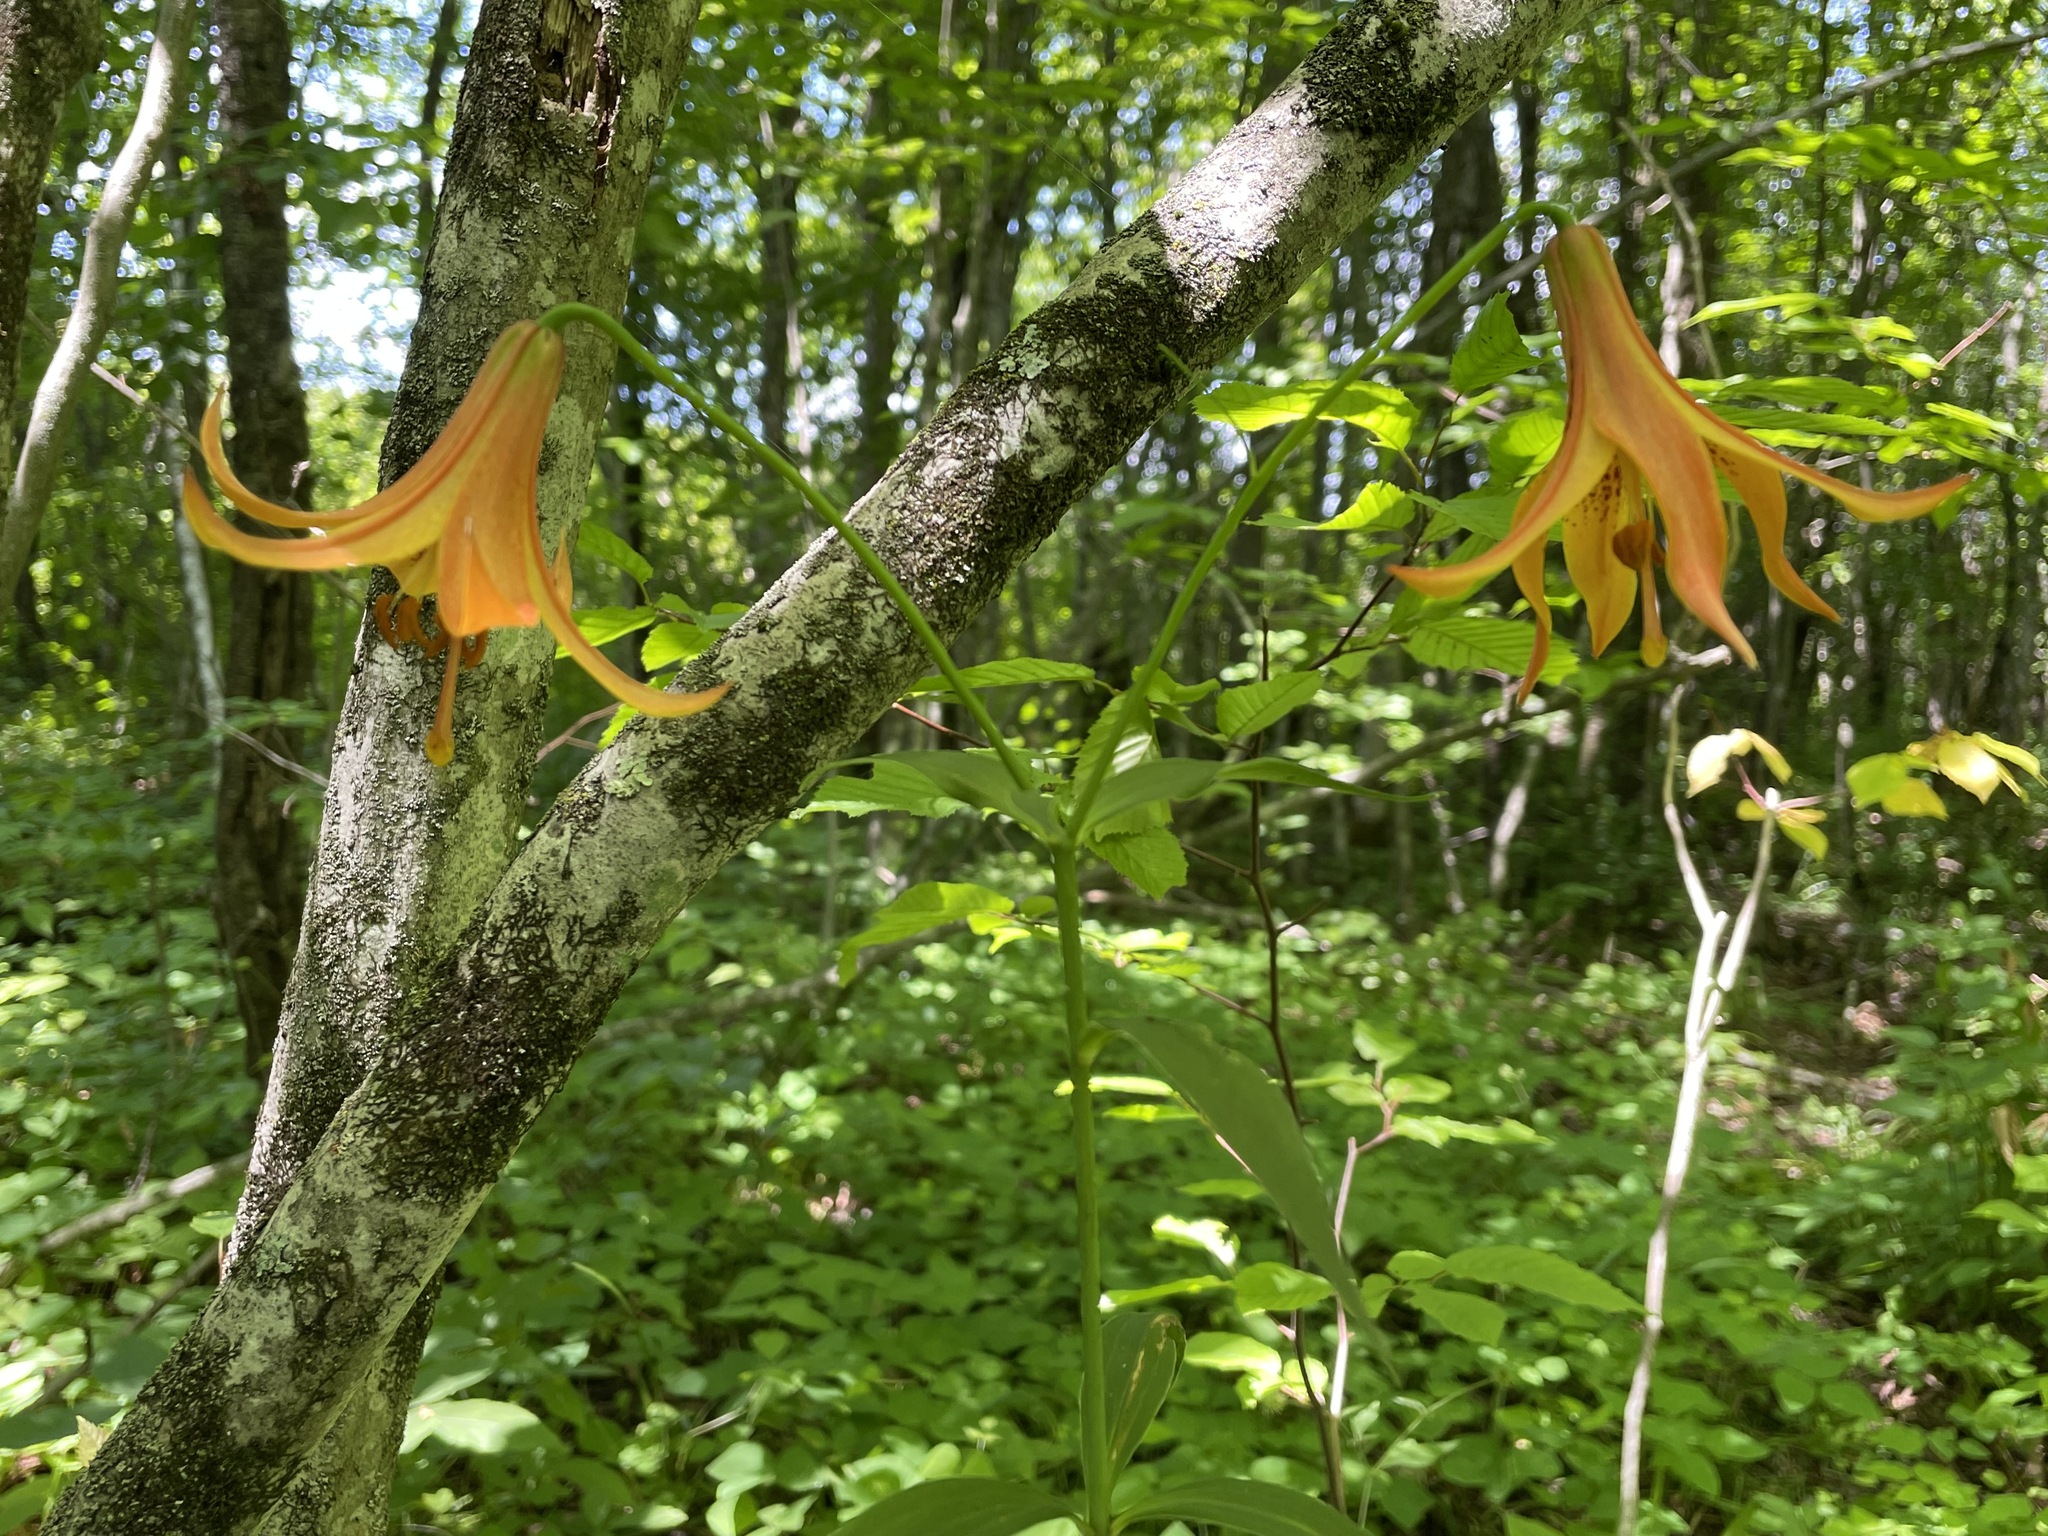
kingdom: Plantae
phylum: Tracheophyta
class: Liliopsida
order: Liliales
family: Liliaceae
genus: Lilium
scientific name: Lilium canadense
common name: Canada lily
